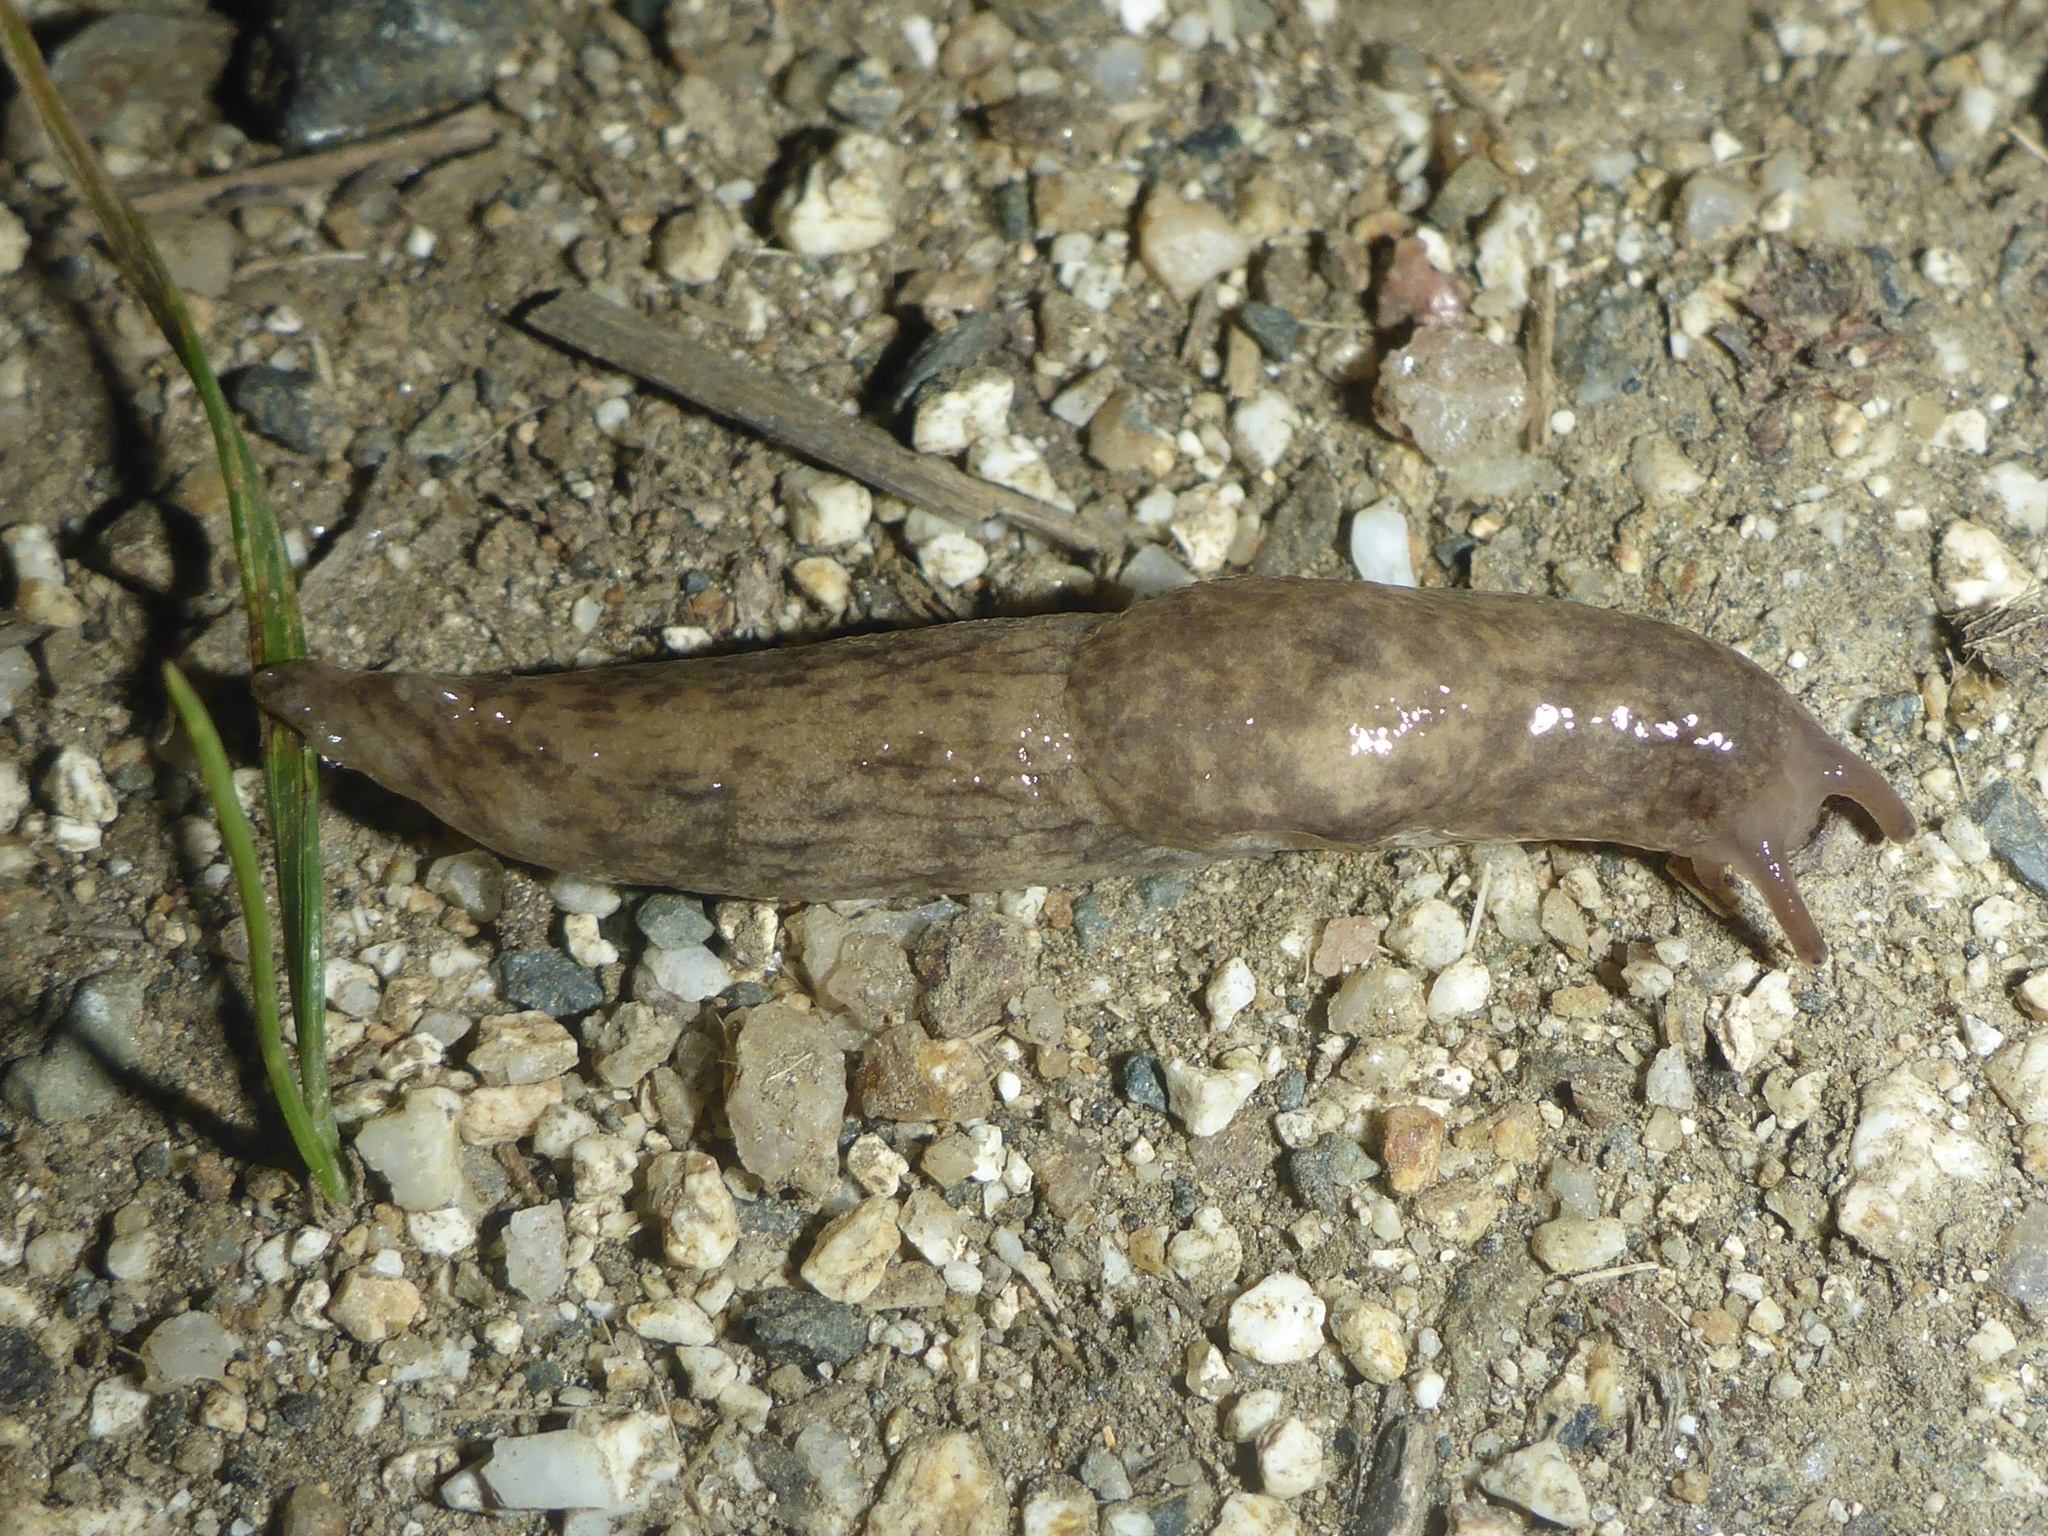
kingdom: Animalia
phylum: Mollusca
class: Gastropoda
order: Stylommatophora
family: Agriolimacidae
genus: Deroceras
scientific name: Deroceras reticulatum
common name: Gray field slug
